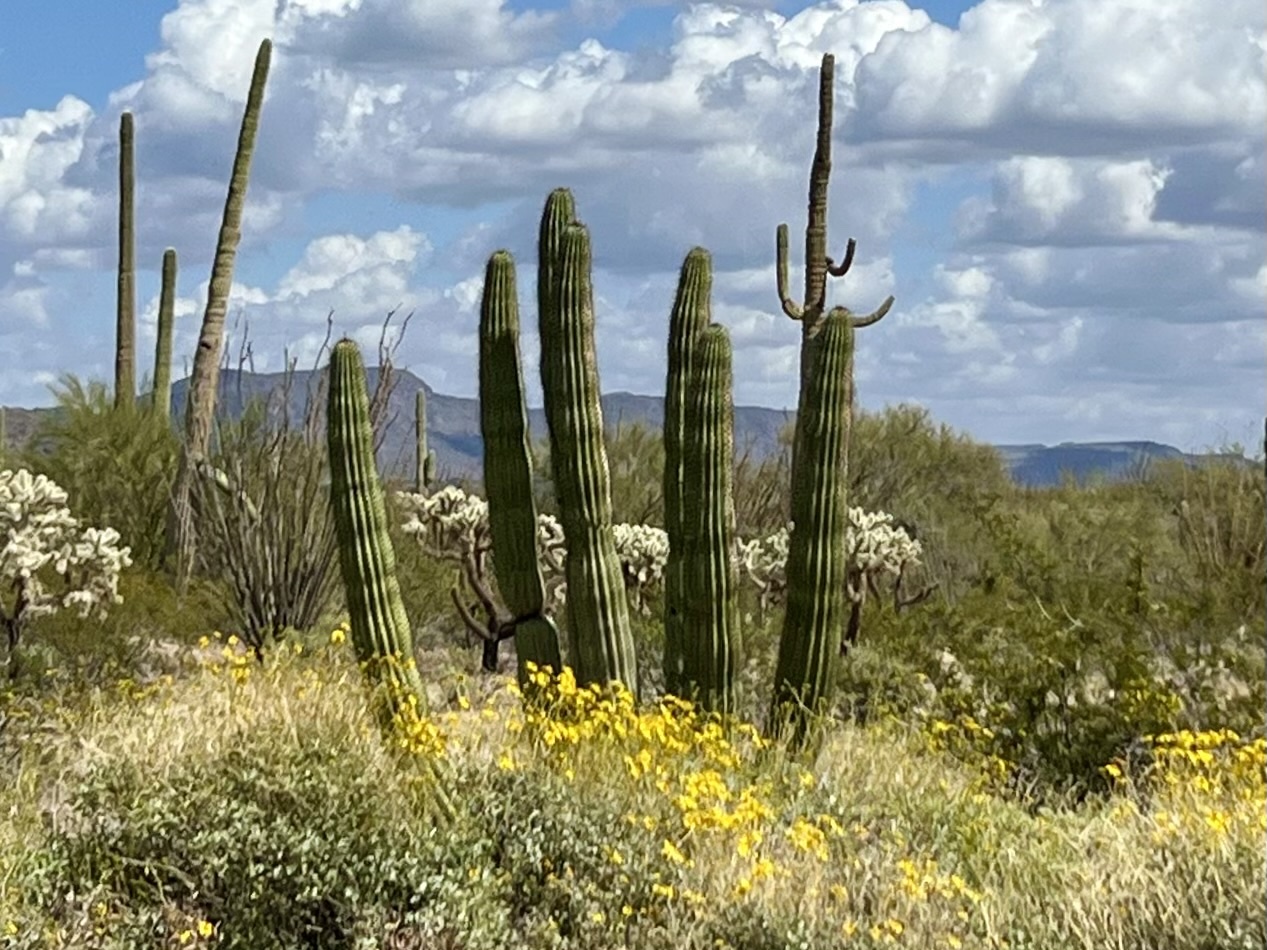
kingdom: Plantae
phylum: Tracheophyta
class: Magnoliopsida
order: Caryophyllales
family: Cactaceae
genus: Stenocereus
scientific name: Stenocereus thurberi
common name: Organ pipe cactus
